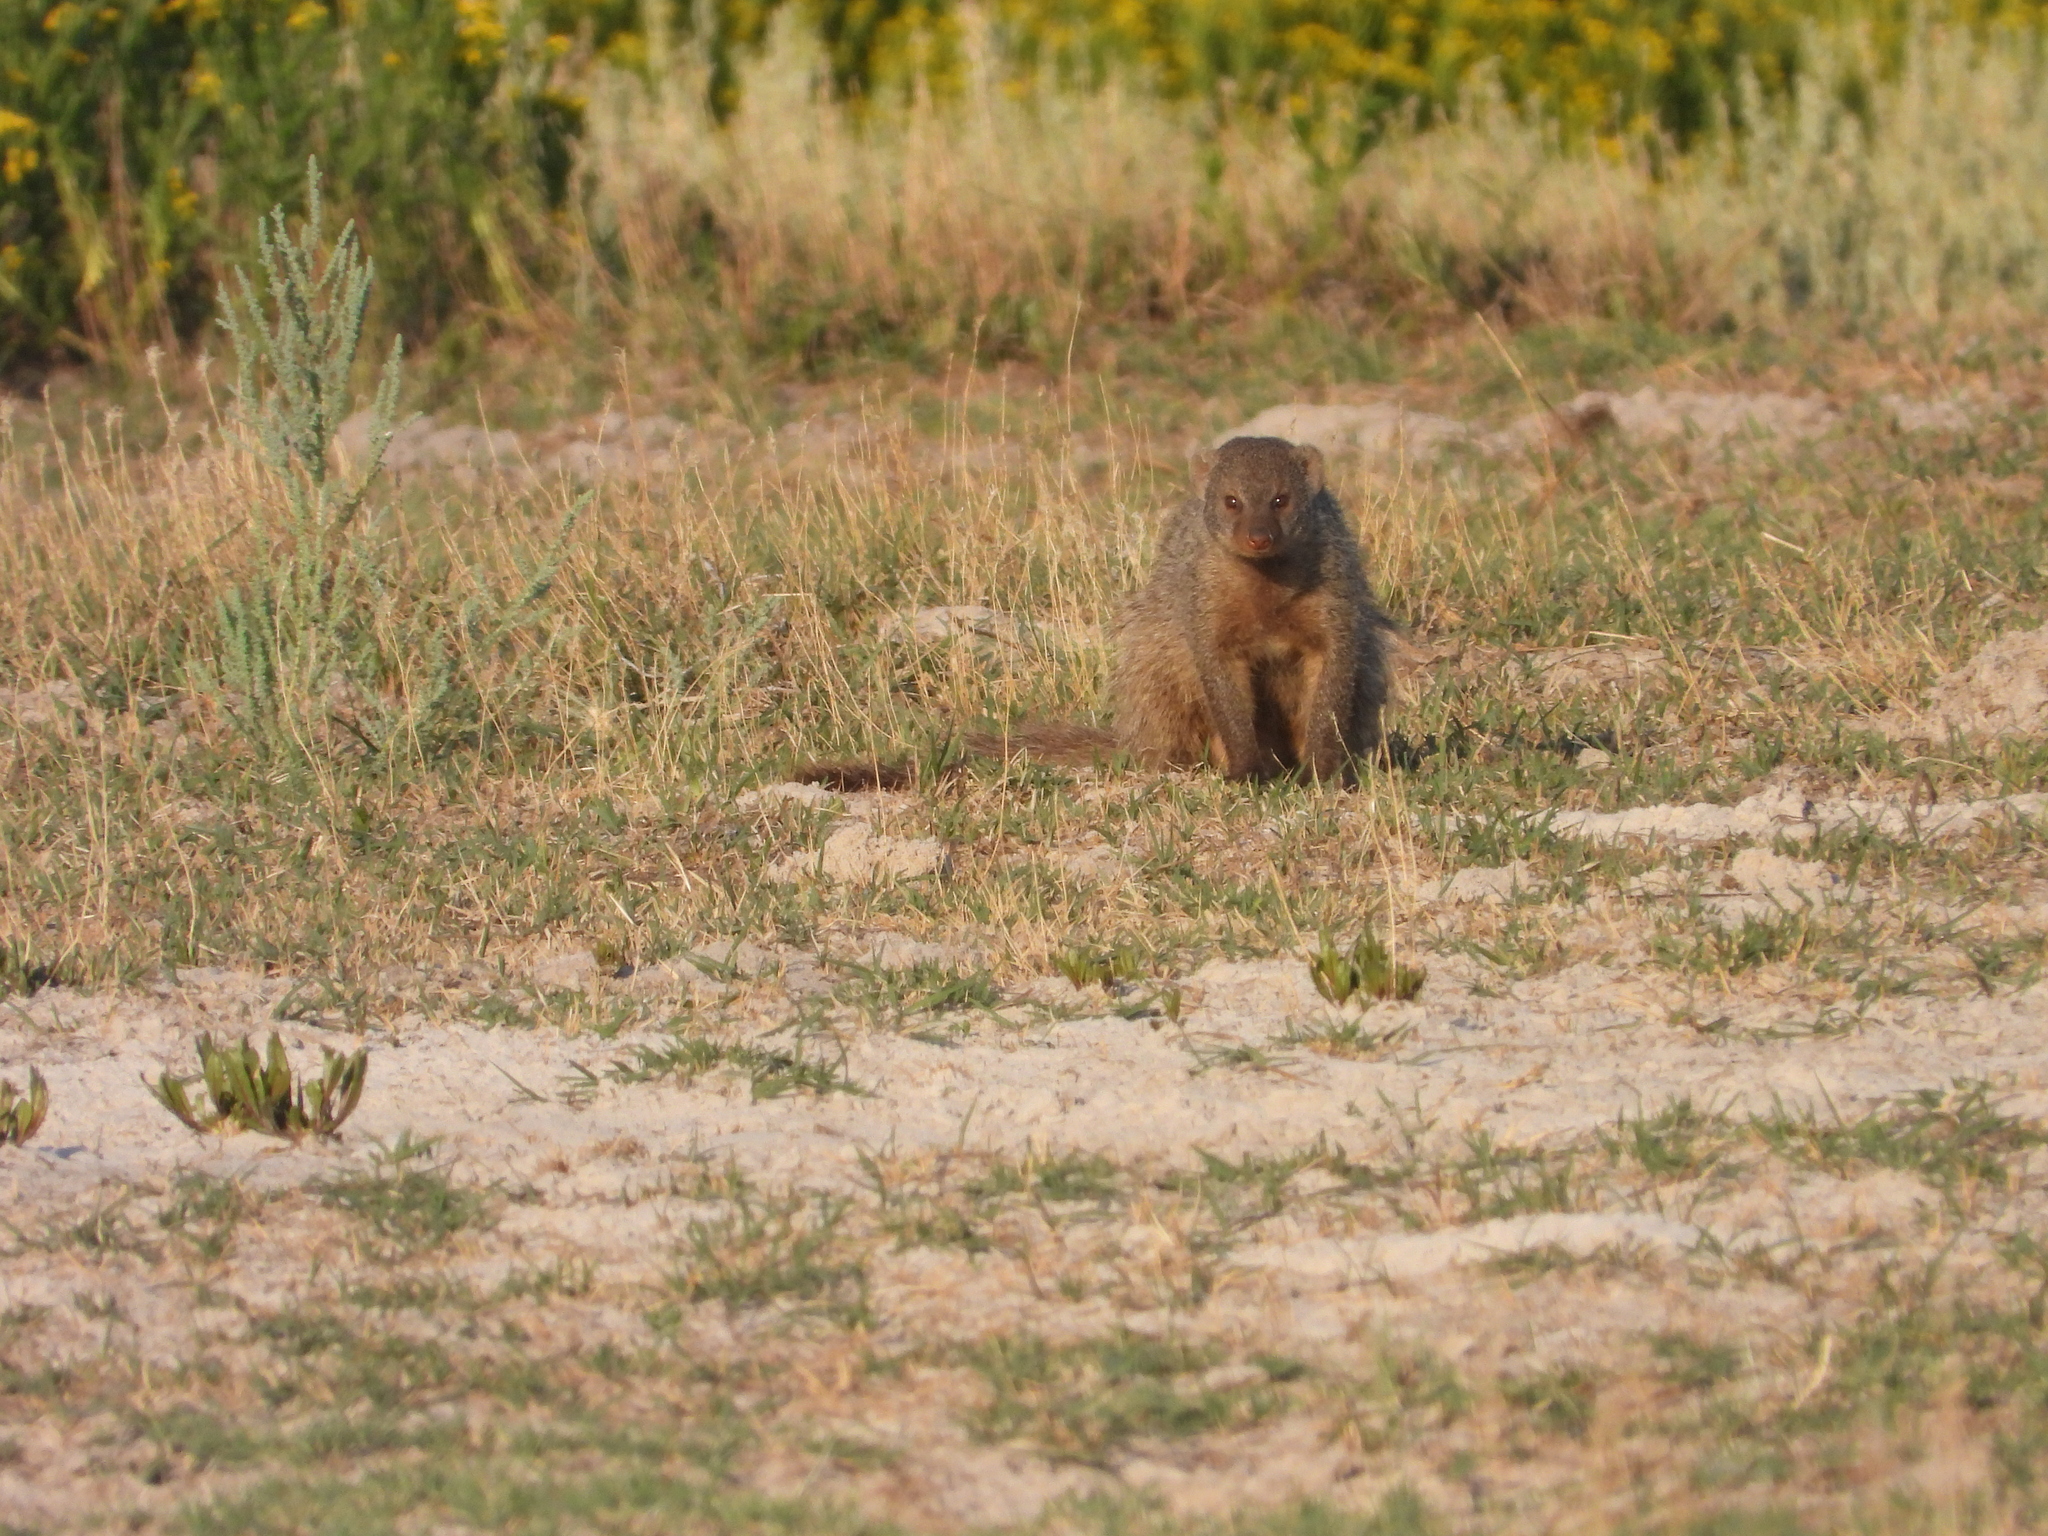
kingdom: Animalia
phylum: Chordata
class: Mammalia
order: Carnivora
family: Herpestidae
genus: Mungos
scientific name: Mungos mungo
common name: Banded mongoose
